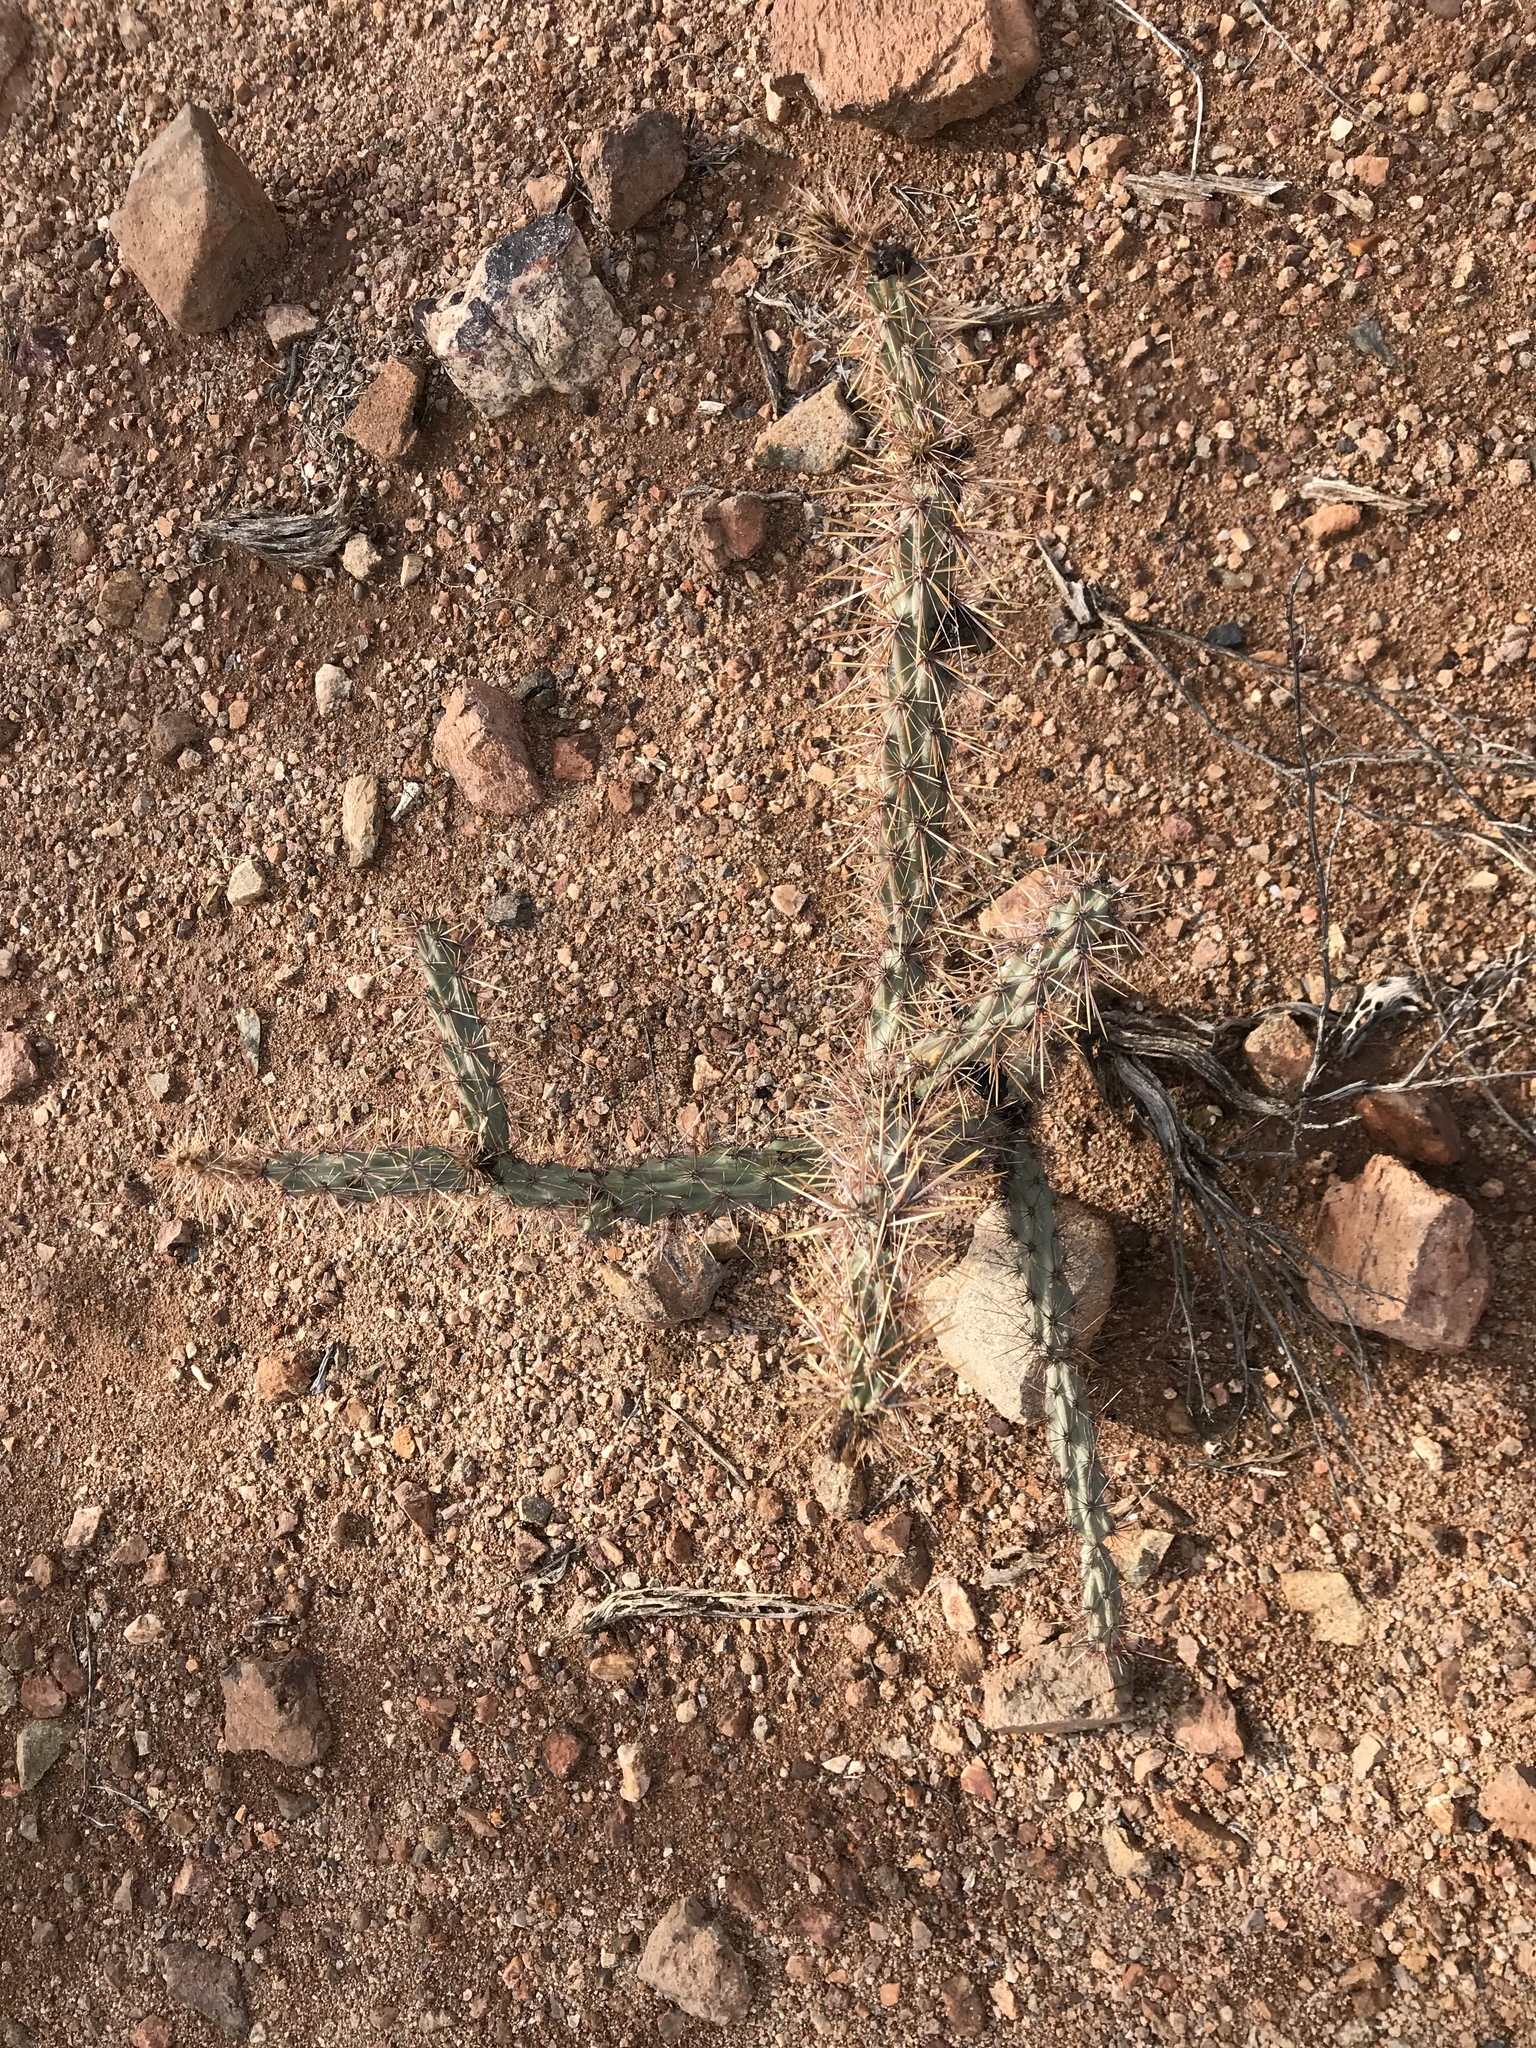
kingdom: Plantae
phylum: Tracheophyta
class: Magnoliopsida
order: Caryophyllales
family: Cactaceae
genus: Cylindropuntia
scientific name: Cylindropuntia acanthocarpa
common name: Buckhorn cholla
